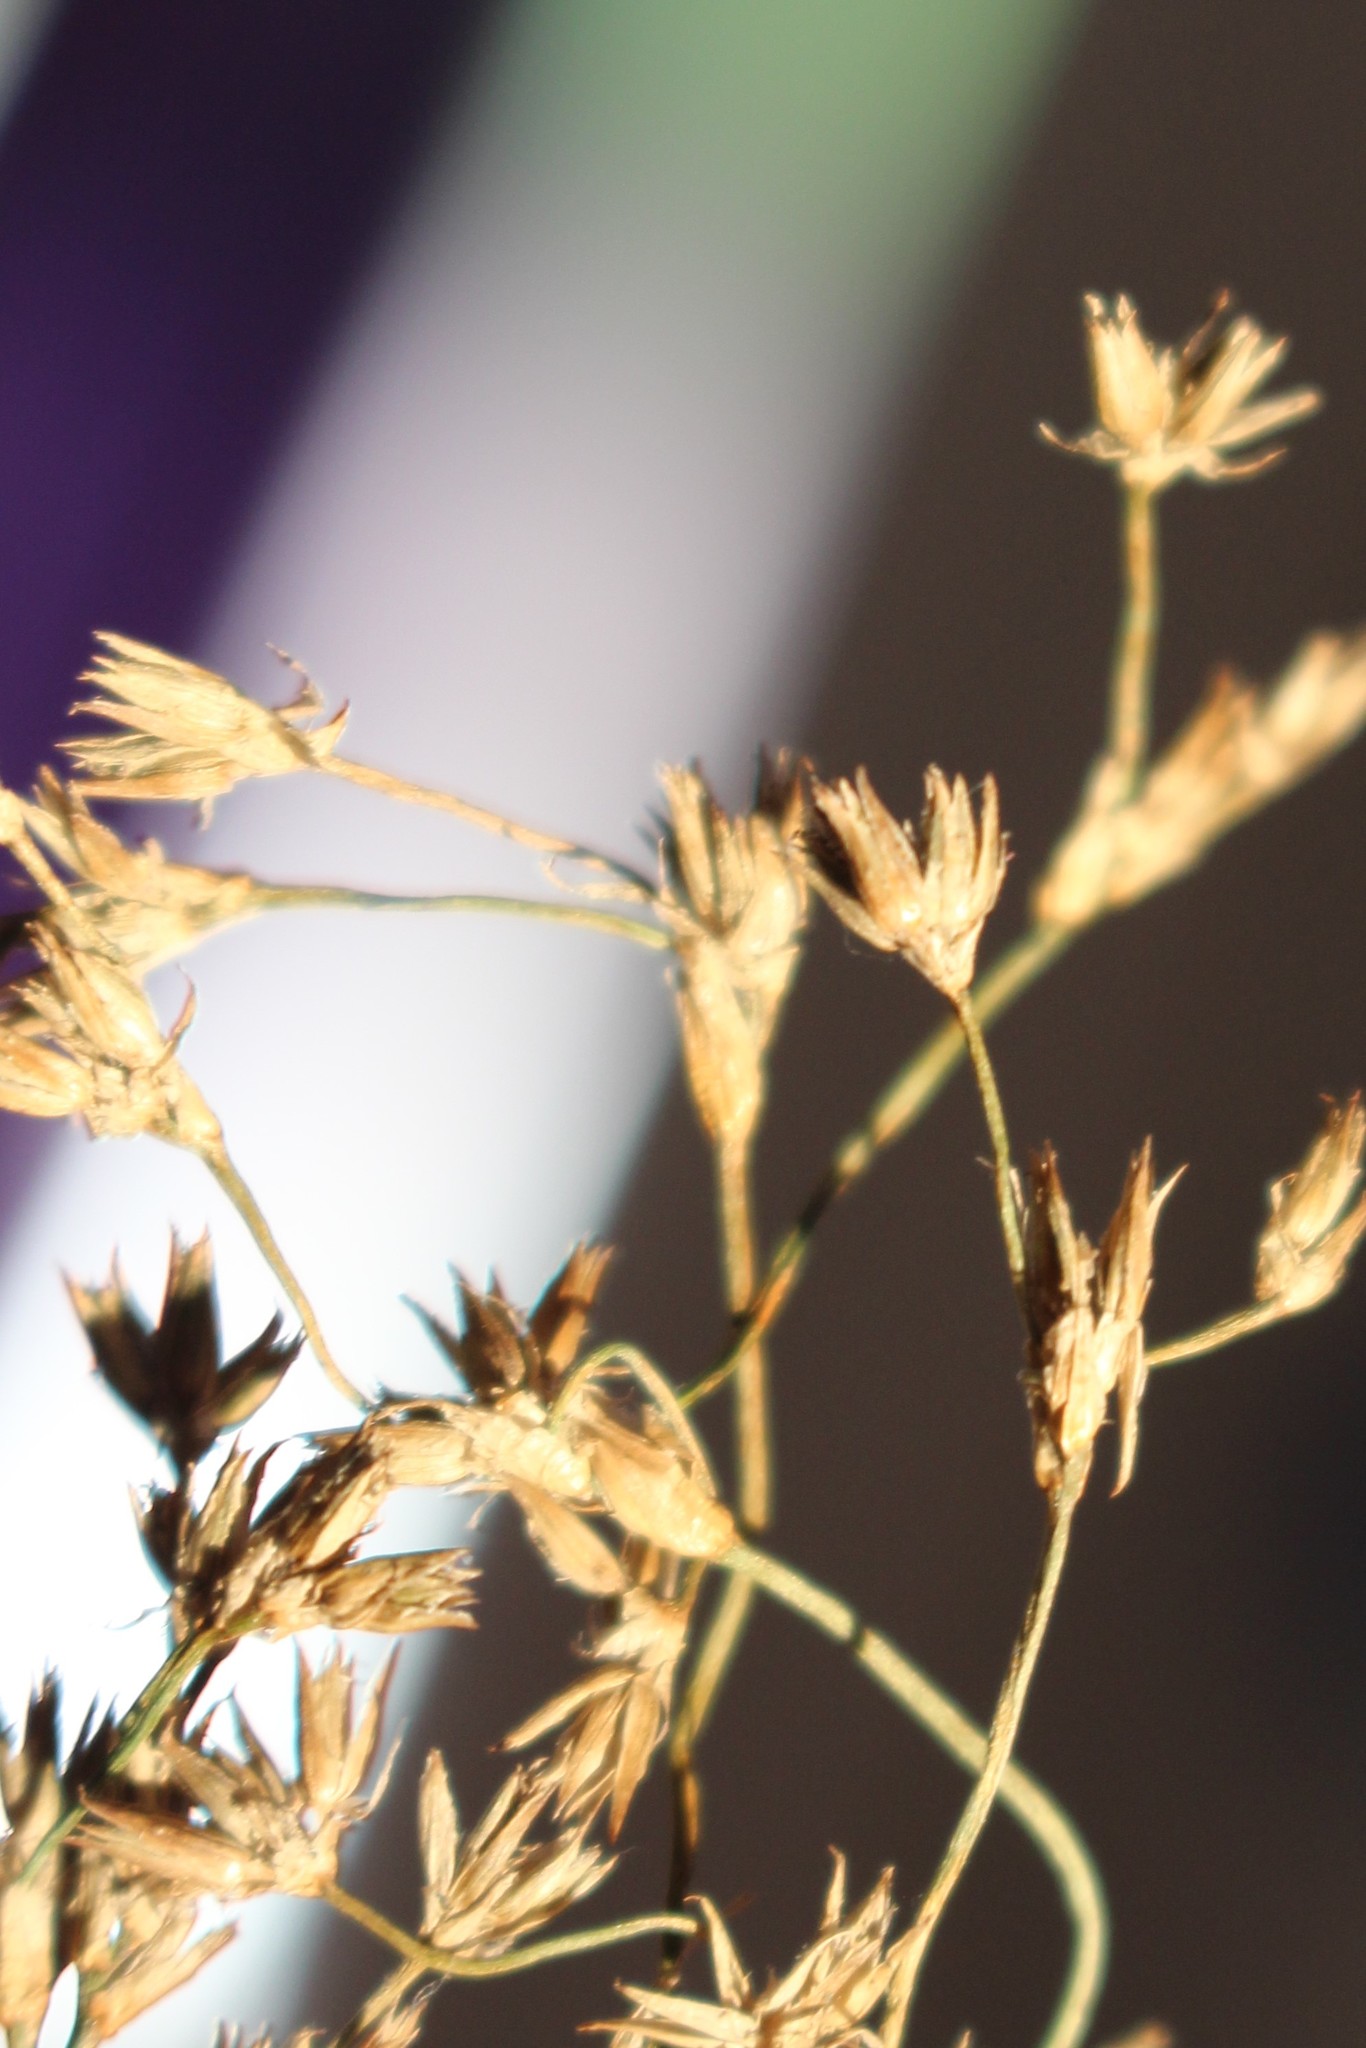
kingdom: Plantae
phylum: Tracheophyta
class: Liliopsida
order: Poales
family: Juncaceae
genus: Juncus
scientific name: Juncus acutiflorus
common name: Sharp-flowered rush
